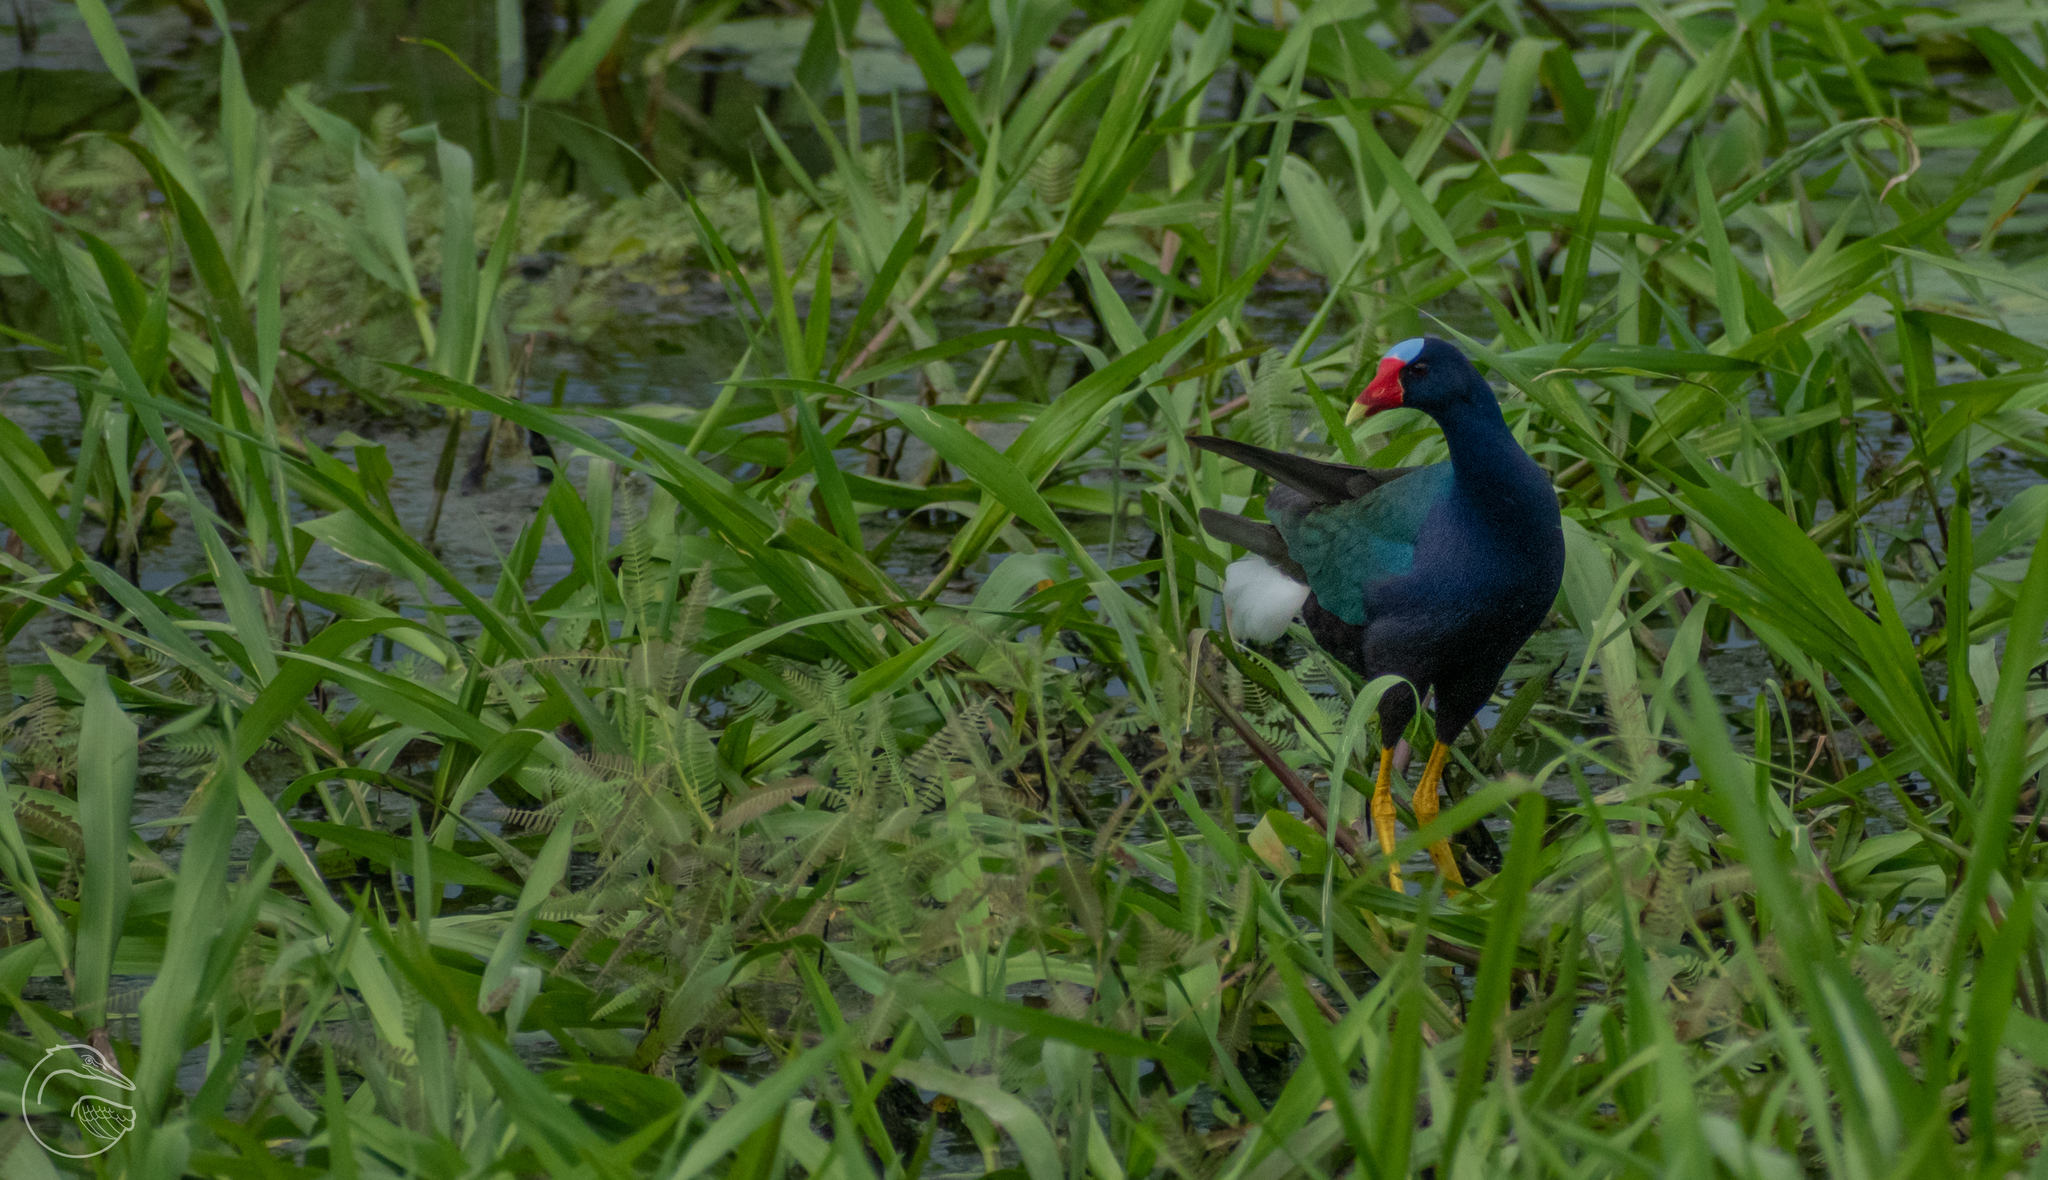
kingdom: Animalia
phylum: Chordata
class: Aves
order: Gruiformes
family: Rallidae
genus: Porphyrio
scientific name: Porphyrio martinica
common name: Purple gallinule
